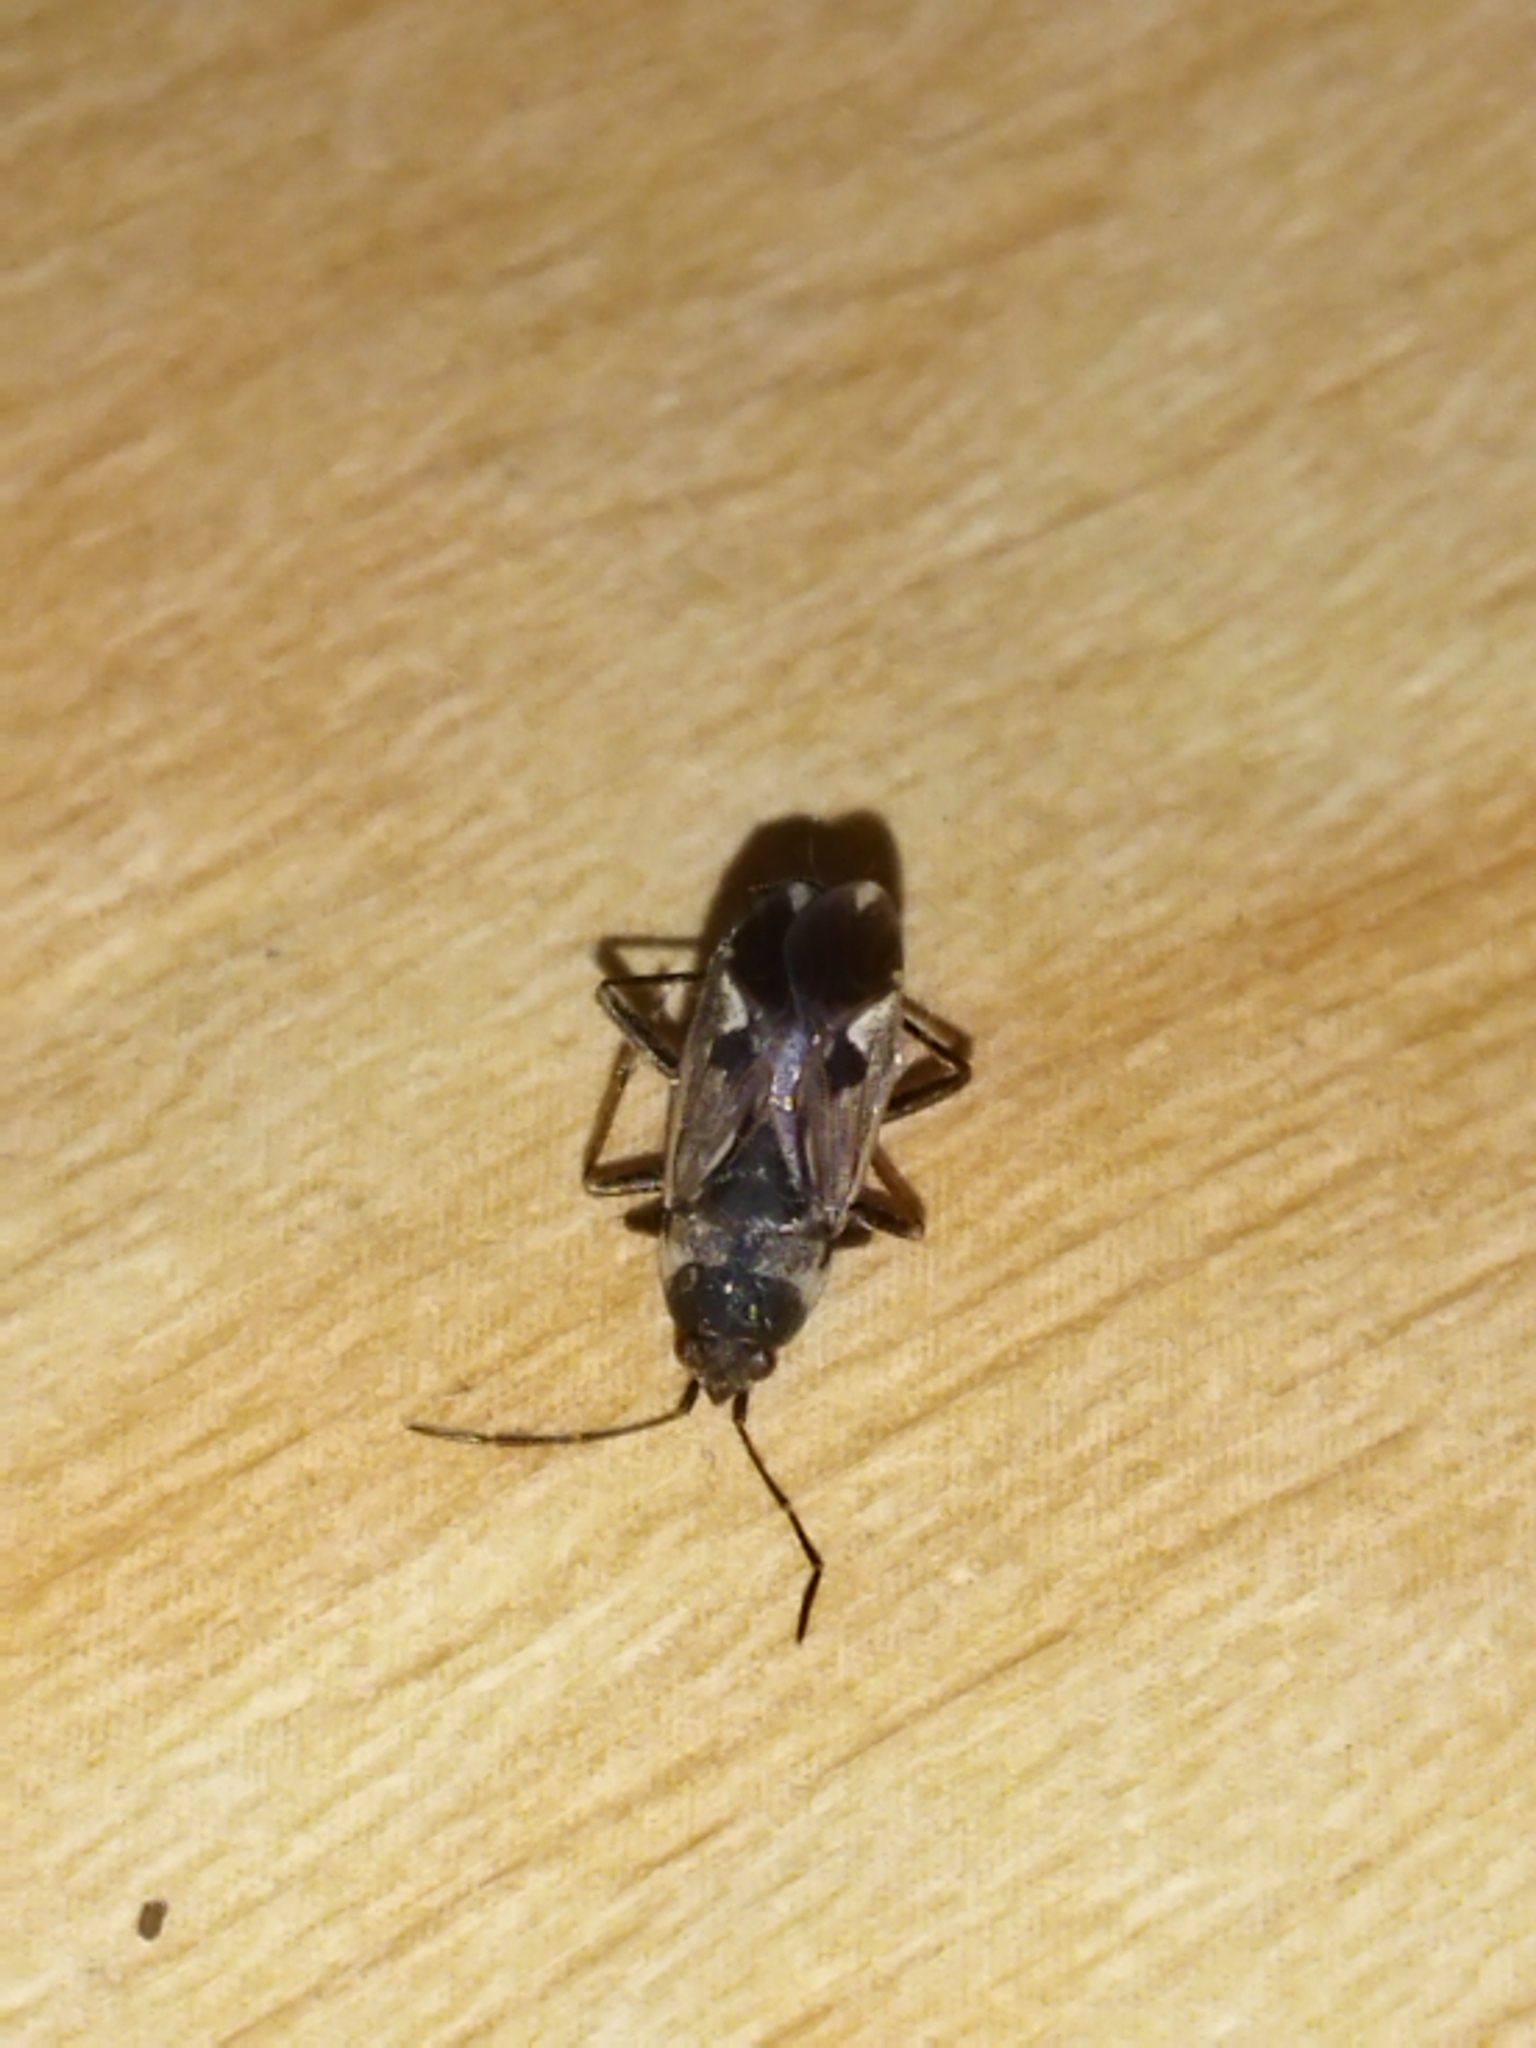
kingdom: Animalia
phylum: Arthropoda
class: Insecta
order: Hemiptera
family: Rhyparochromidae
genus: Rhyparochromus
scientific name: Rhyparochromus vulgaris
